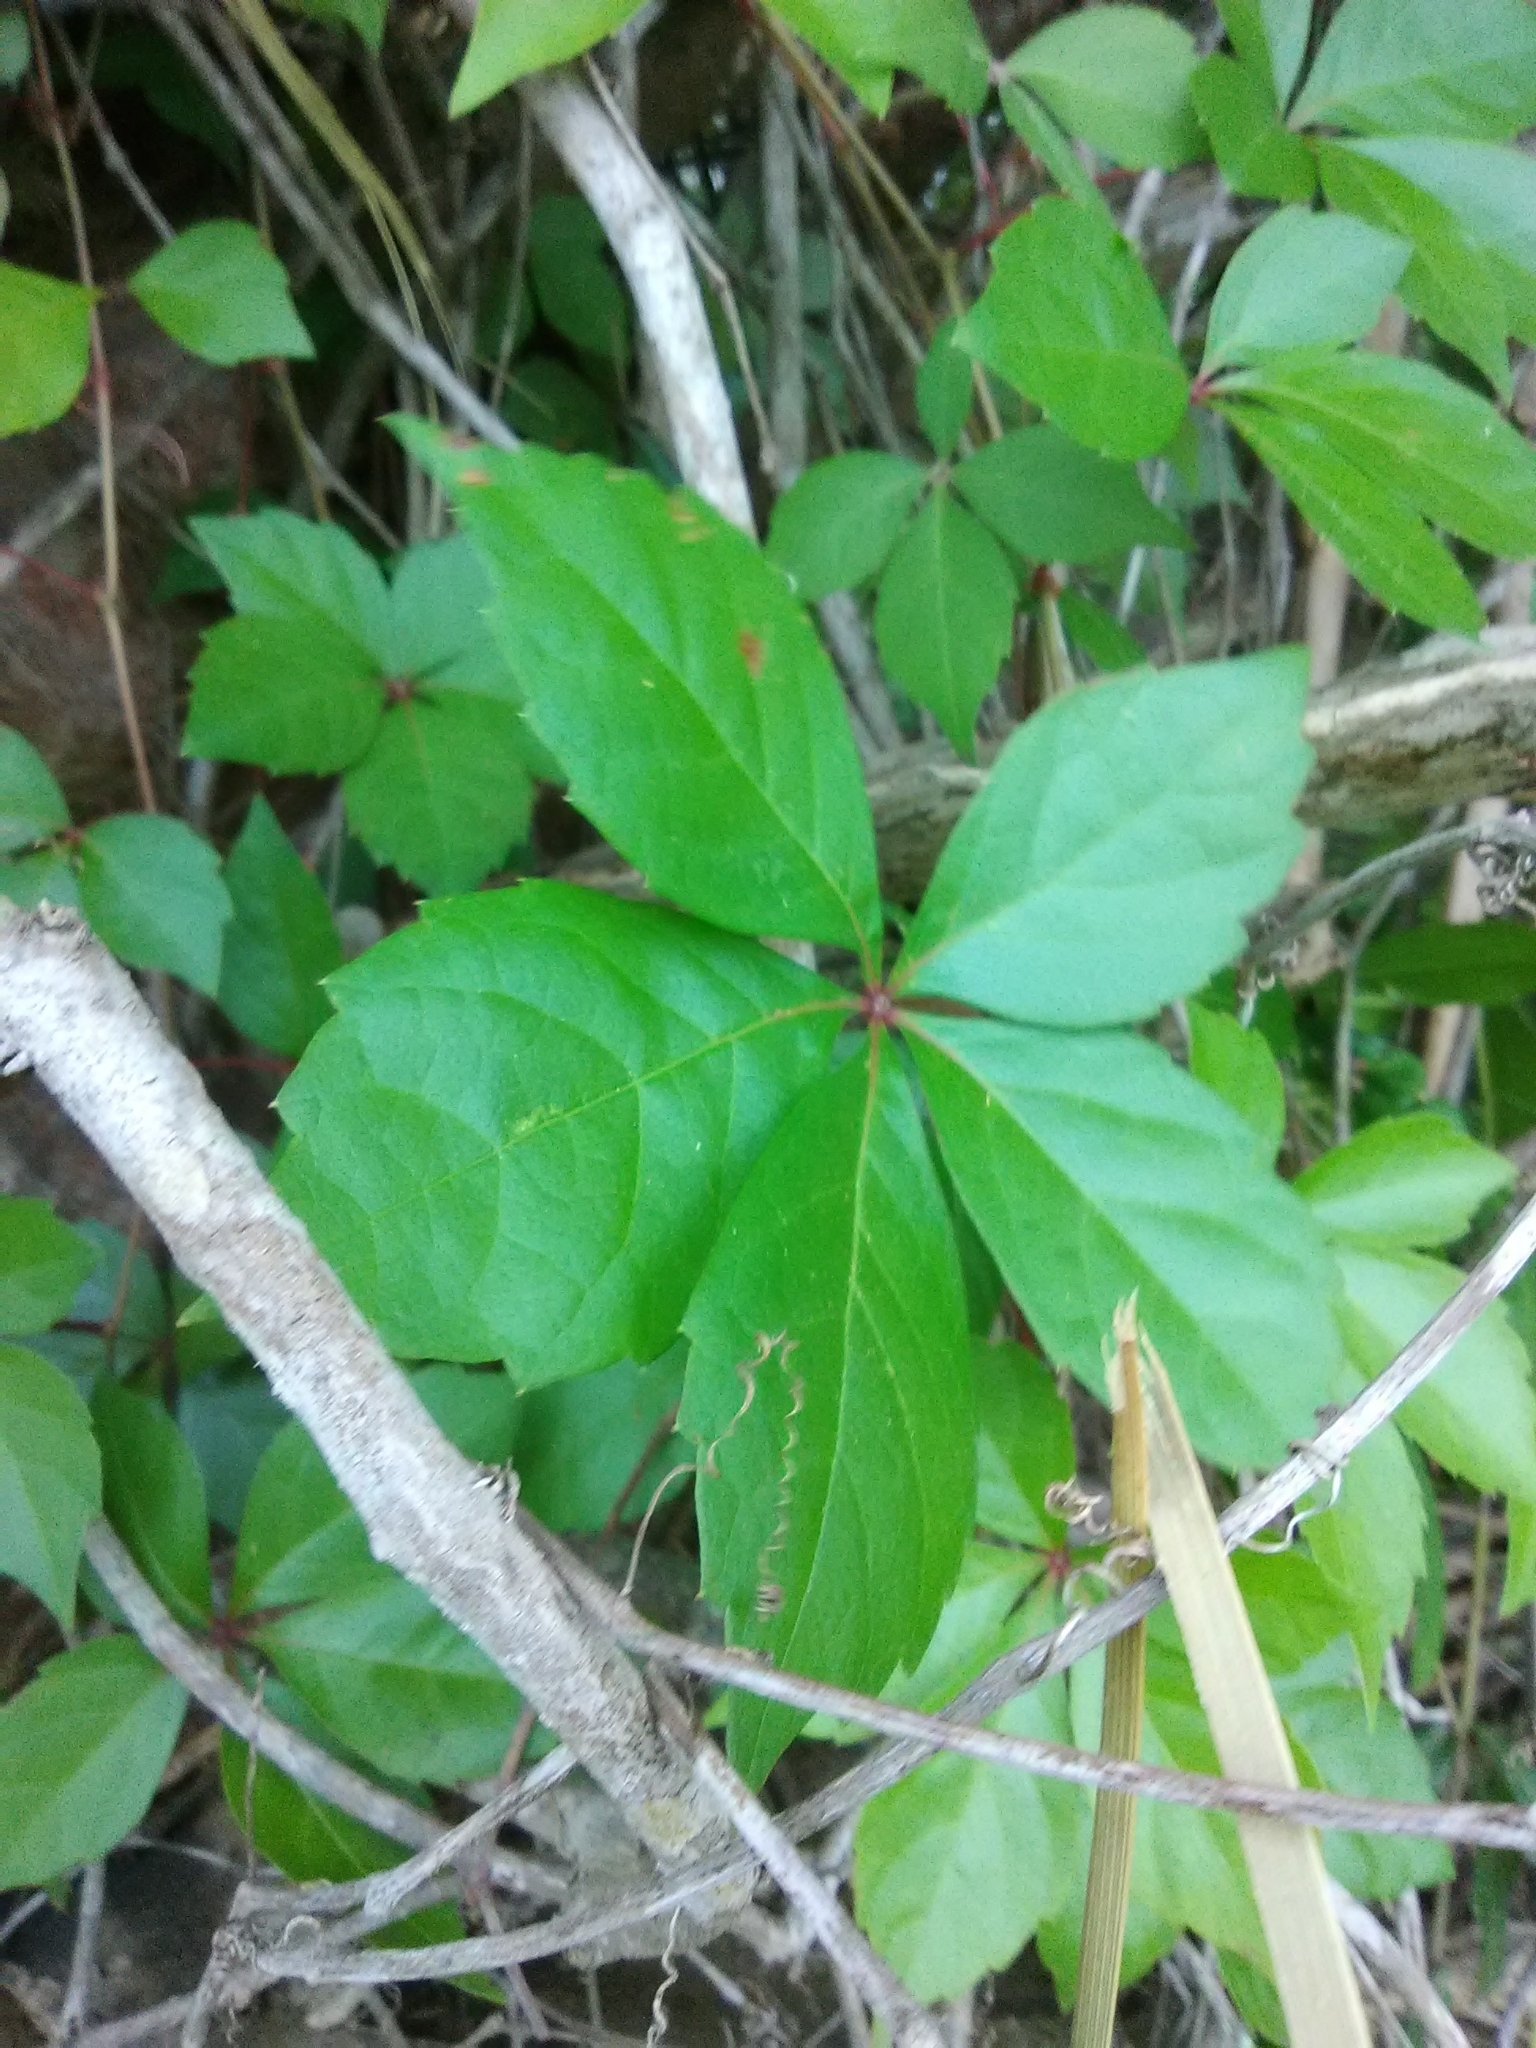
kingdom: Plantae
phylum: Tracheophyta
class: Magnoliopsida
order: Vitales
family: Vitaceae
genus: Parthenocissus
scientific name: Parthenocissus quinquefolia
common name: Virginia-creeper
